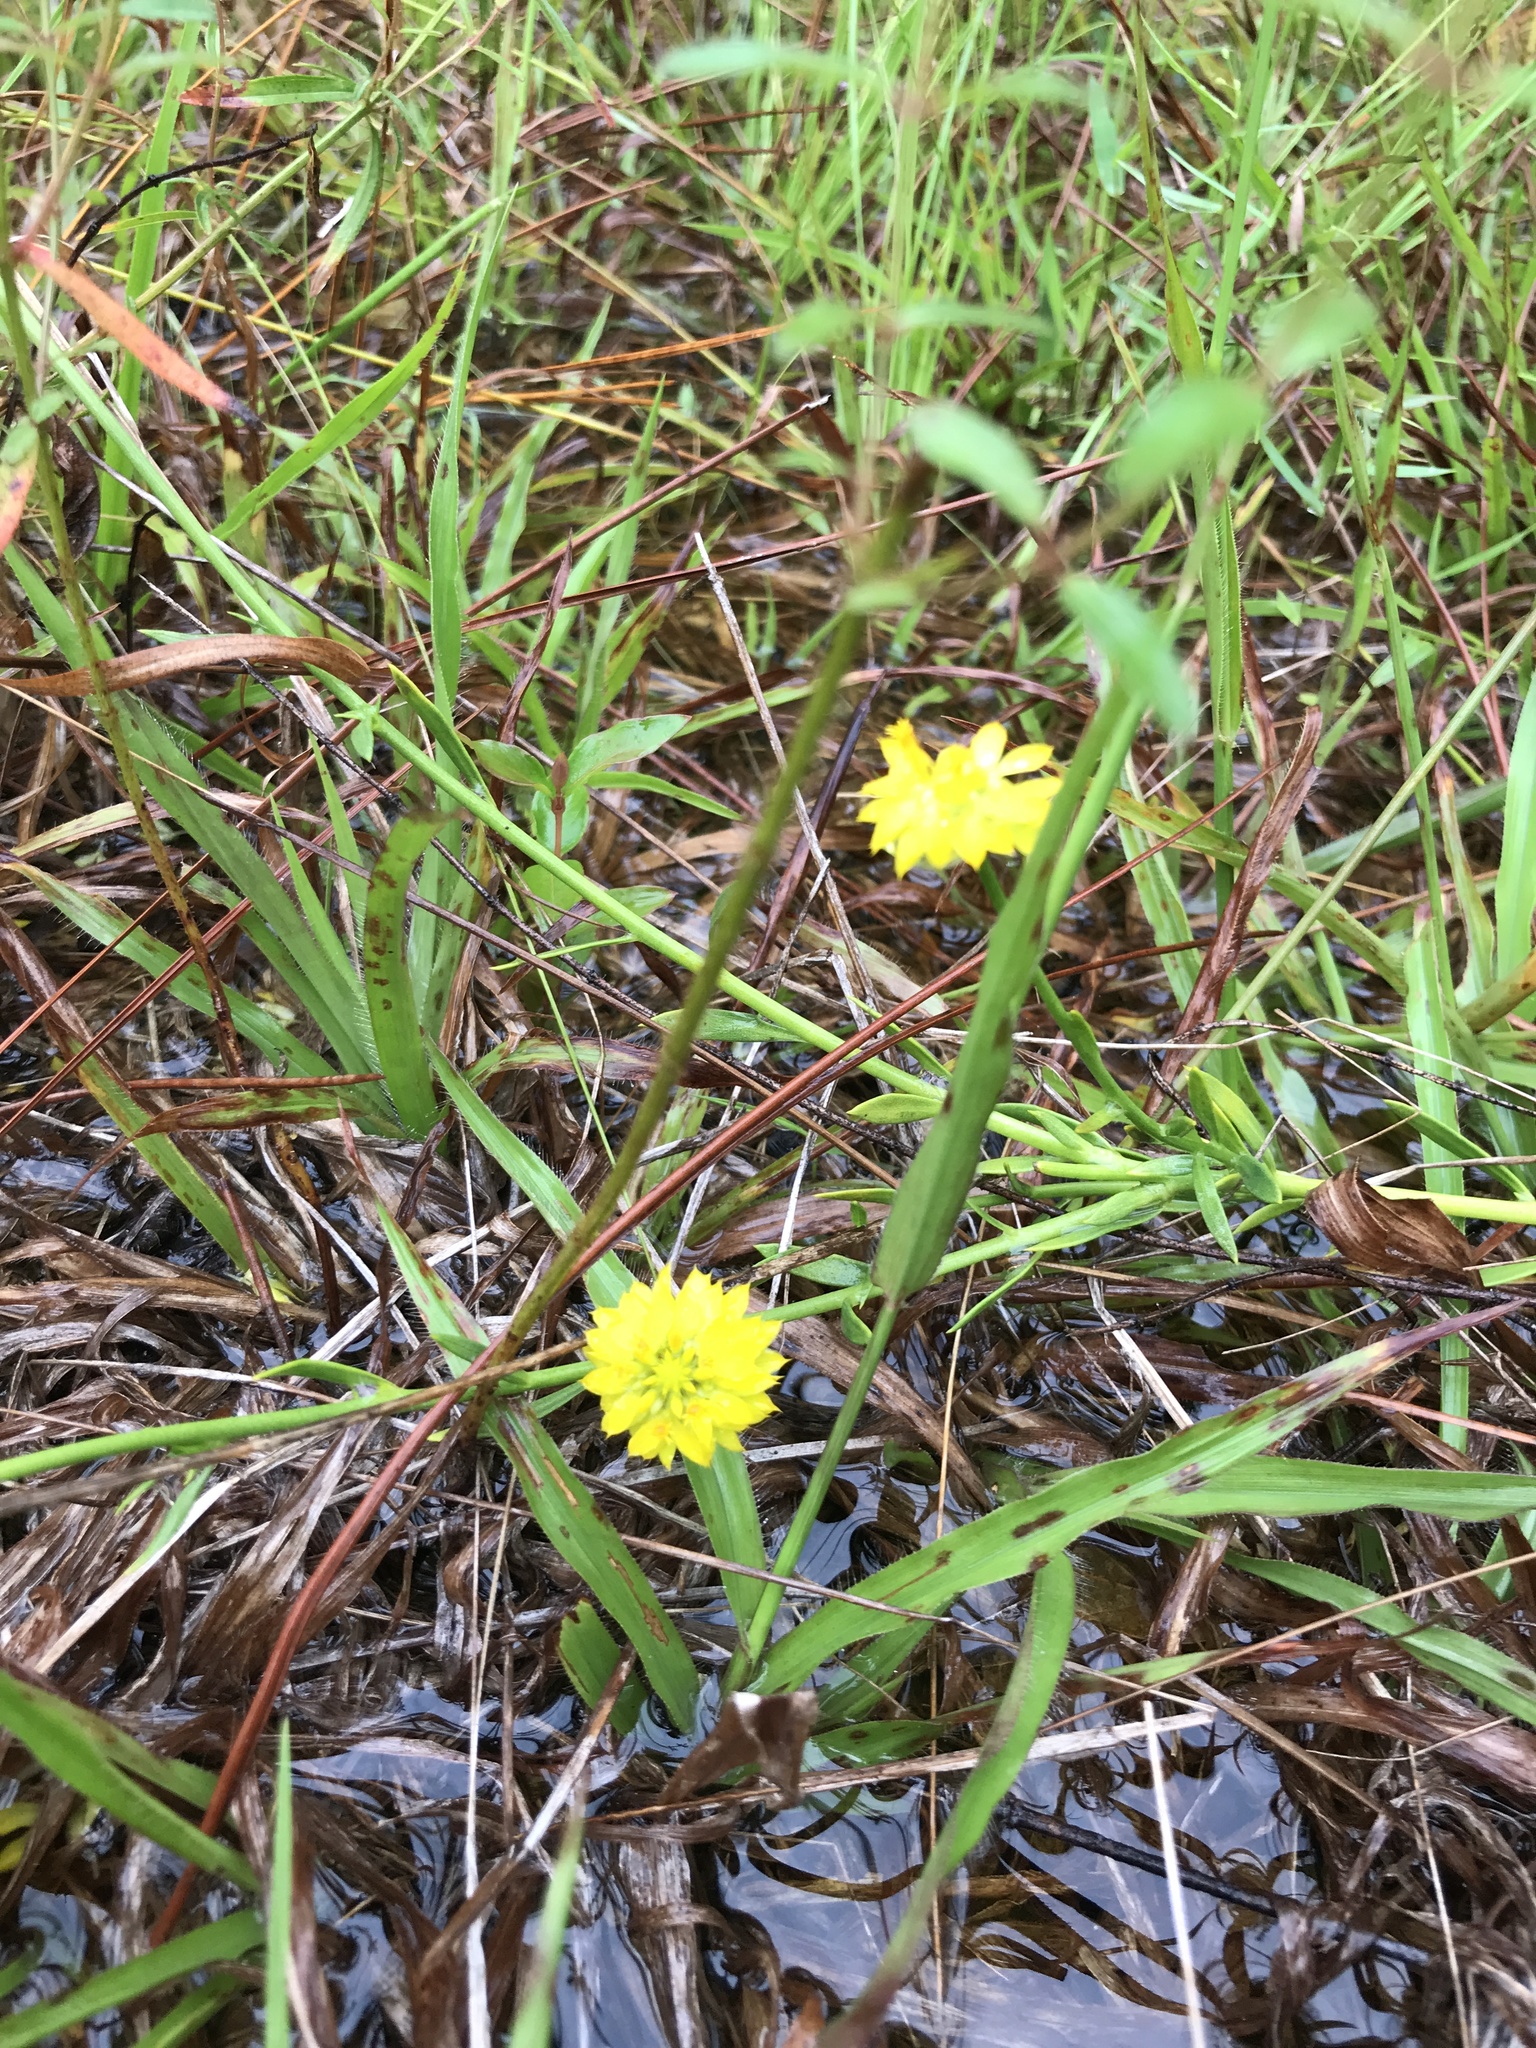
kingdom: Plantae
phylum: Tracheophyta
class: Magnoliopsida
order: Fabales
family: Polygalaceae
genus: Polygala
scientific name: Polygala rugelii
